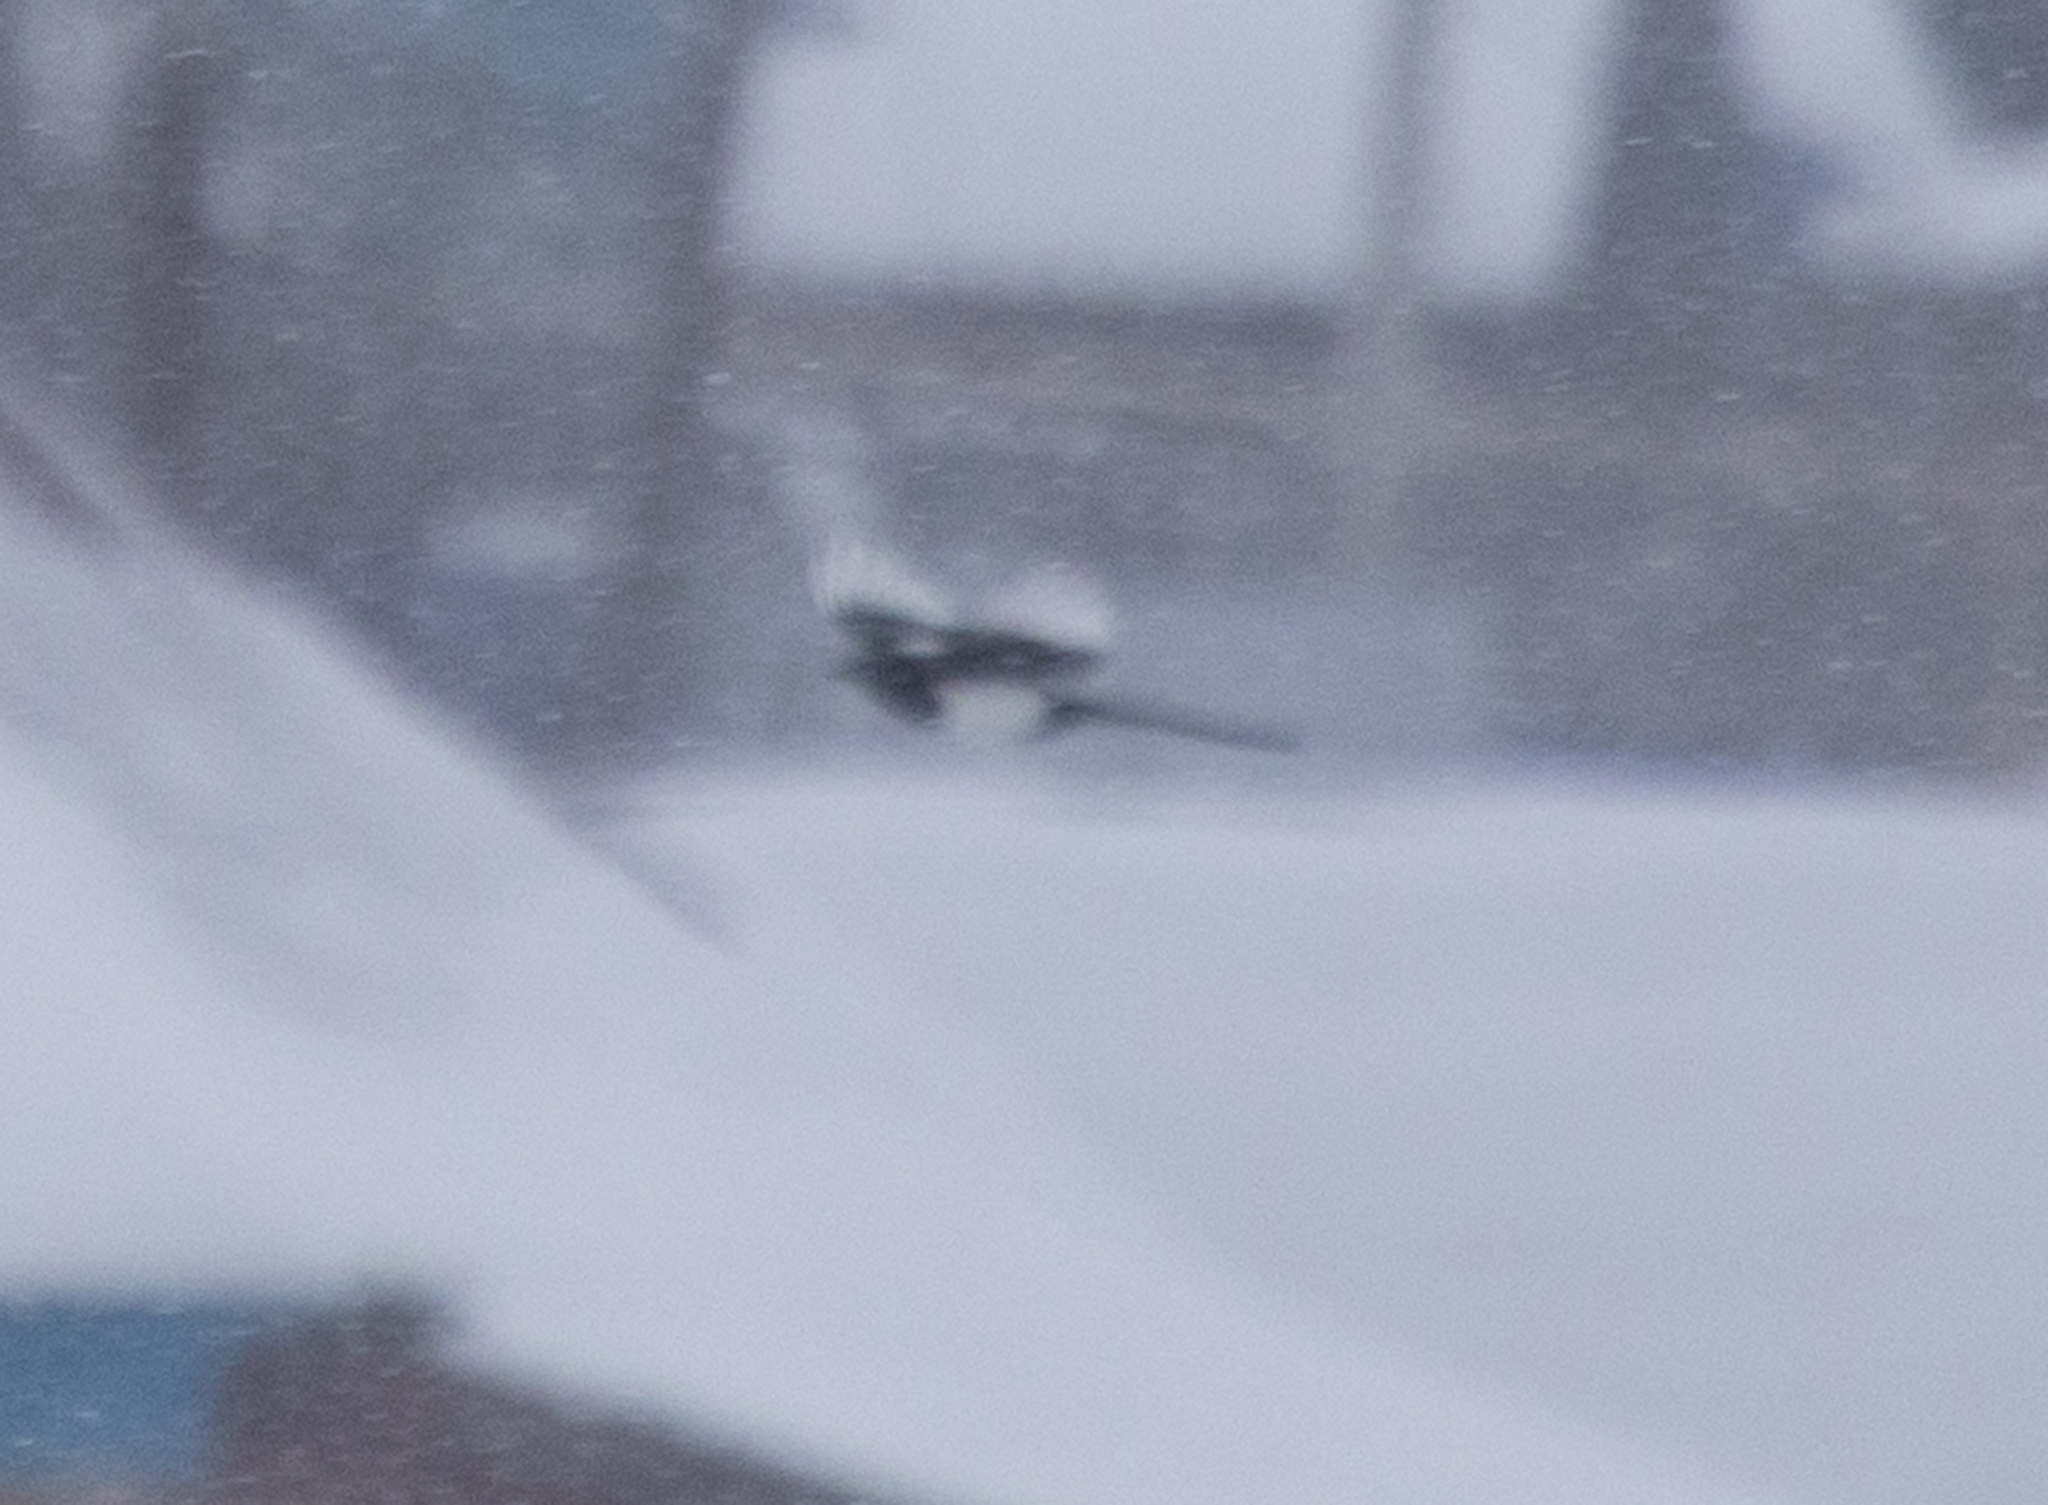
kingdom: Animalia
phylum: Chordata
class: Aves
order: Passeriformes
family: Corvidae
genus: Pica
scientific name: Pica pica
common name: Eurasian magpie
